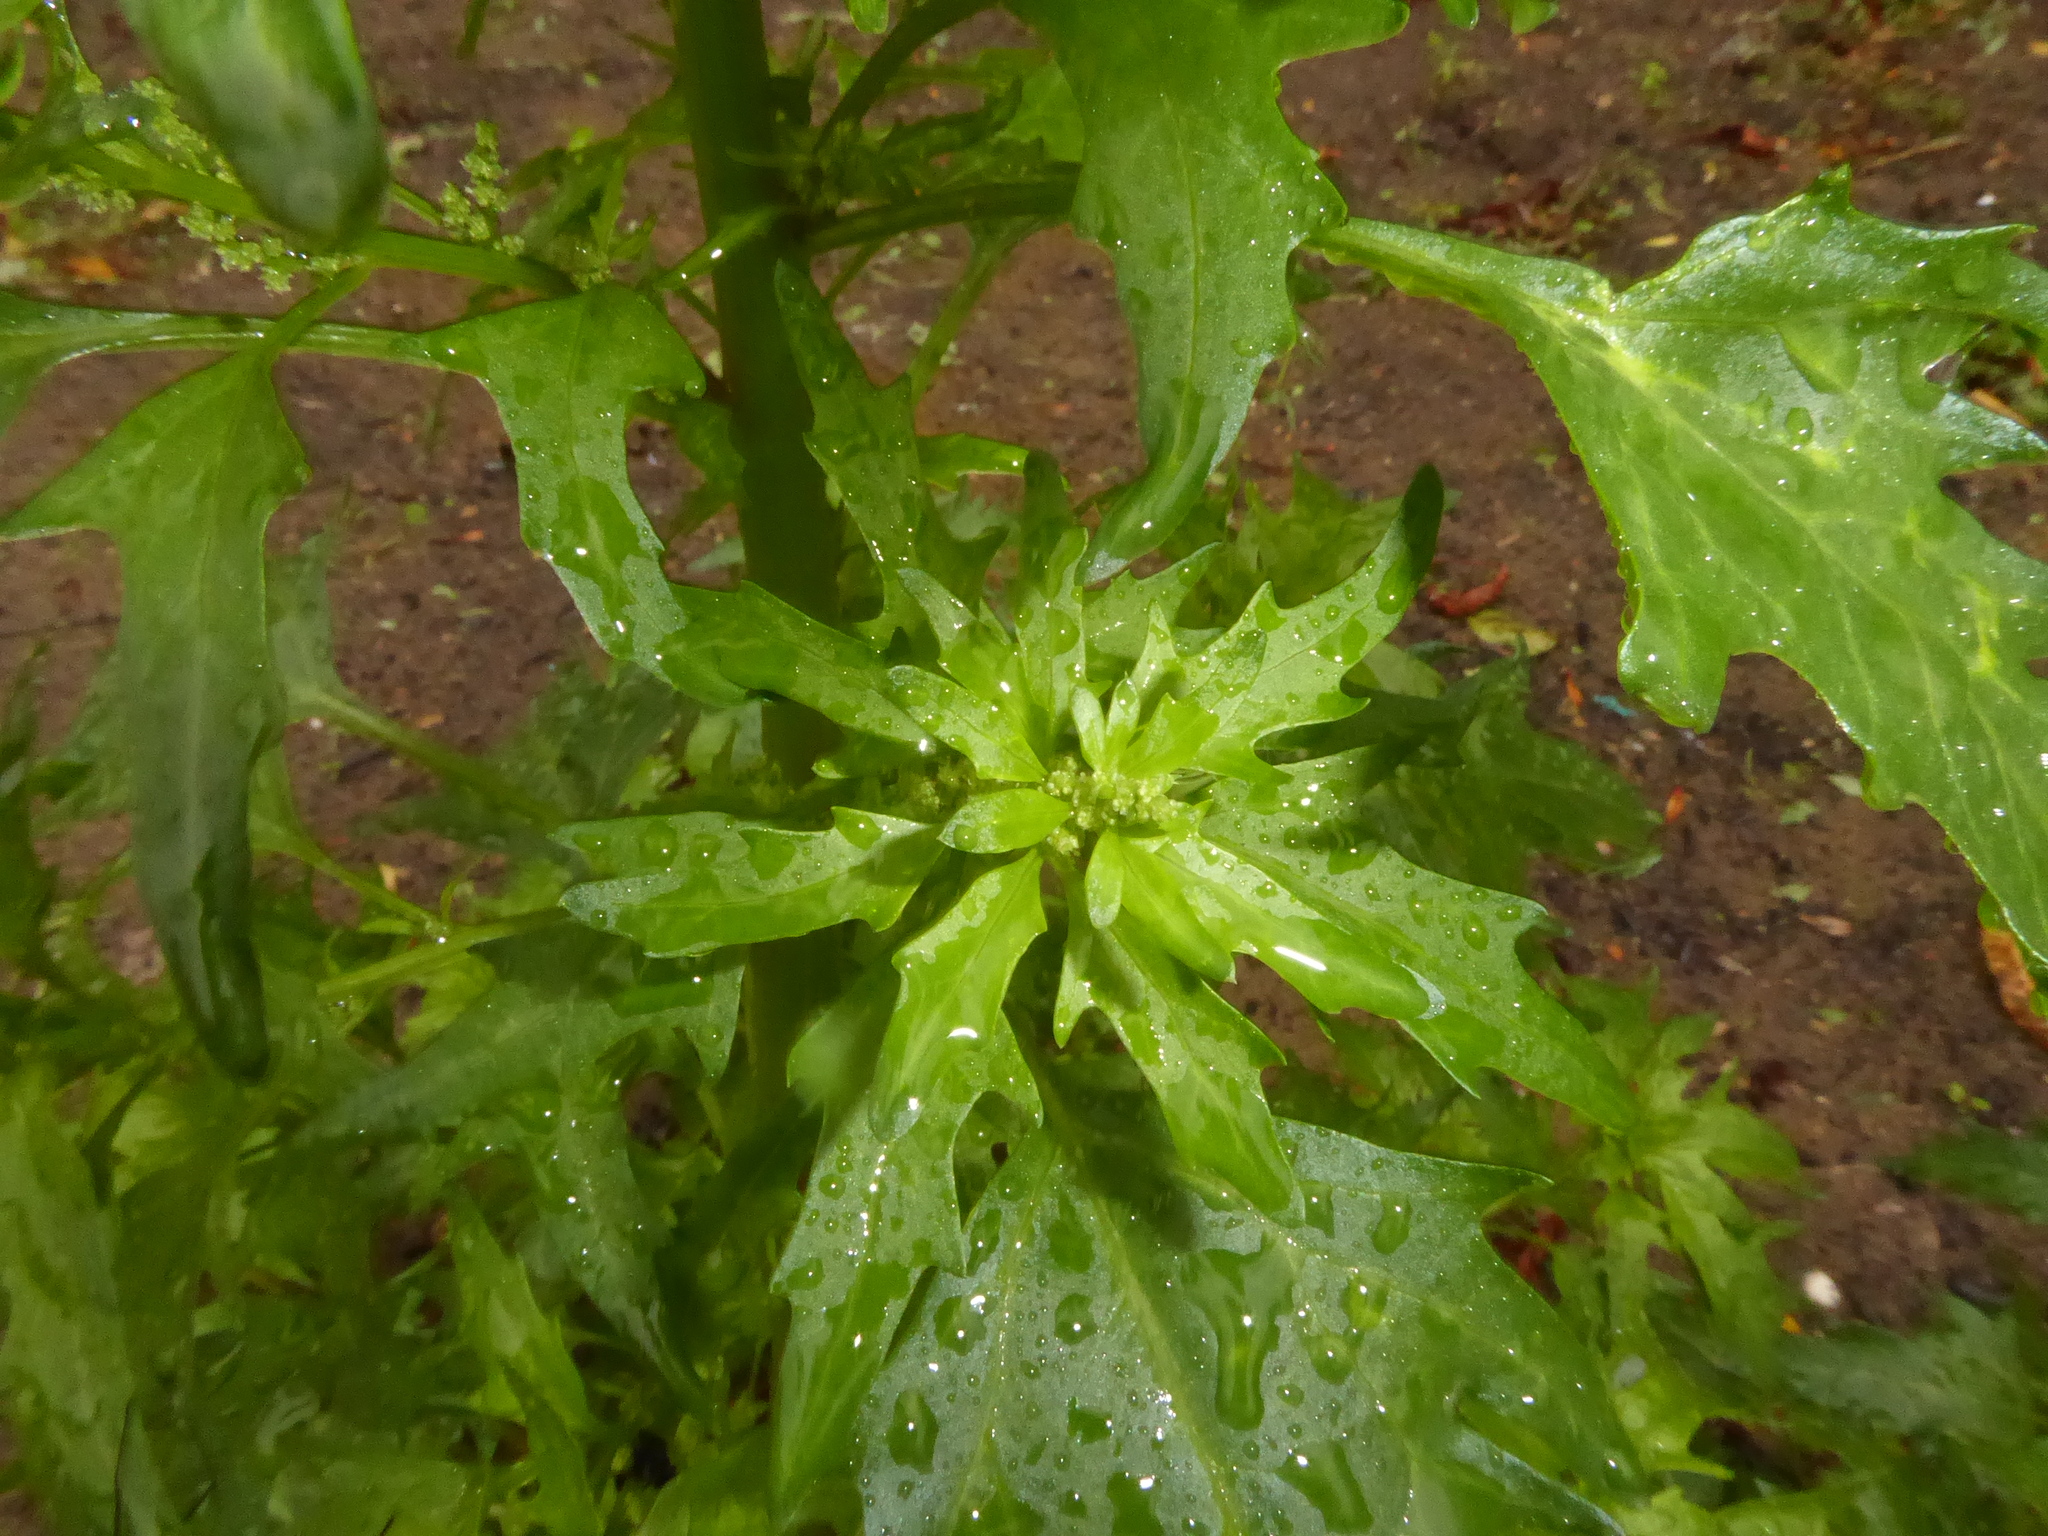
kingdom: Plantae
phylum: Tracheophyta
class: Magnoliopsida
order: Caryophyllales
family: Amaranthaceae
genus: Oxybasis
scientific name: Oxybasis rubra
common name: Red goosefoot
